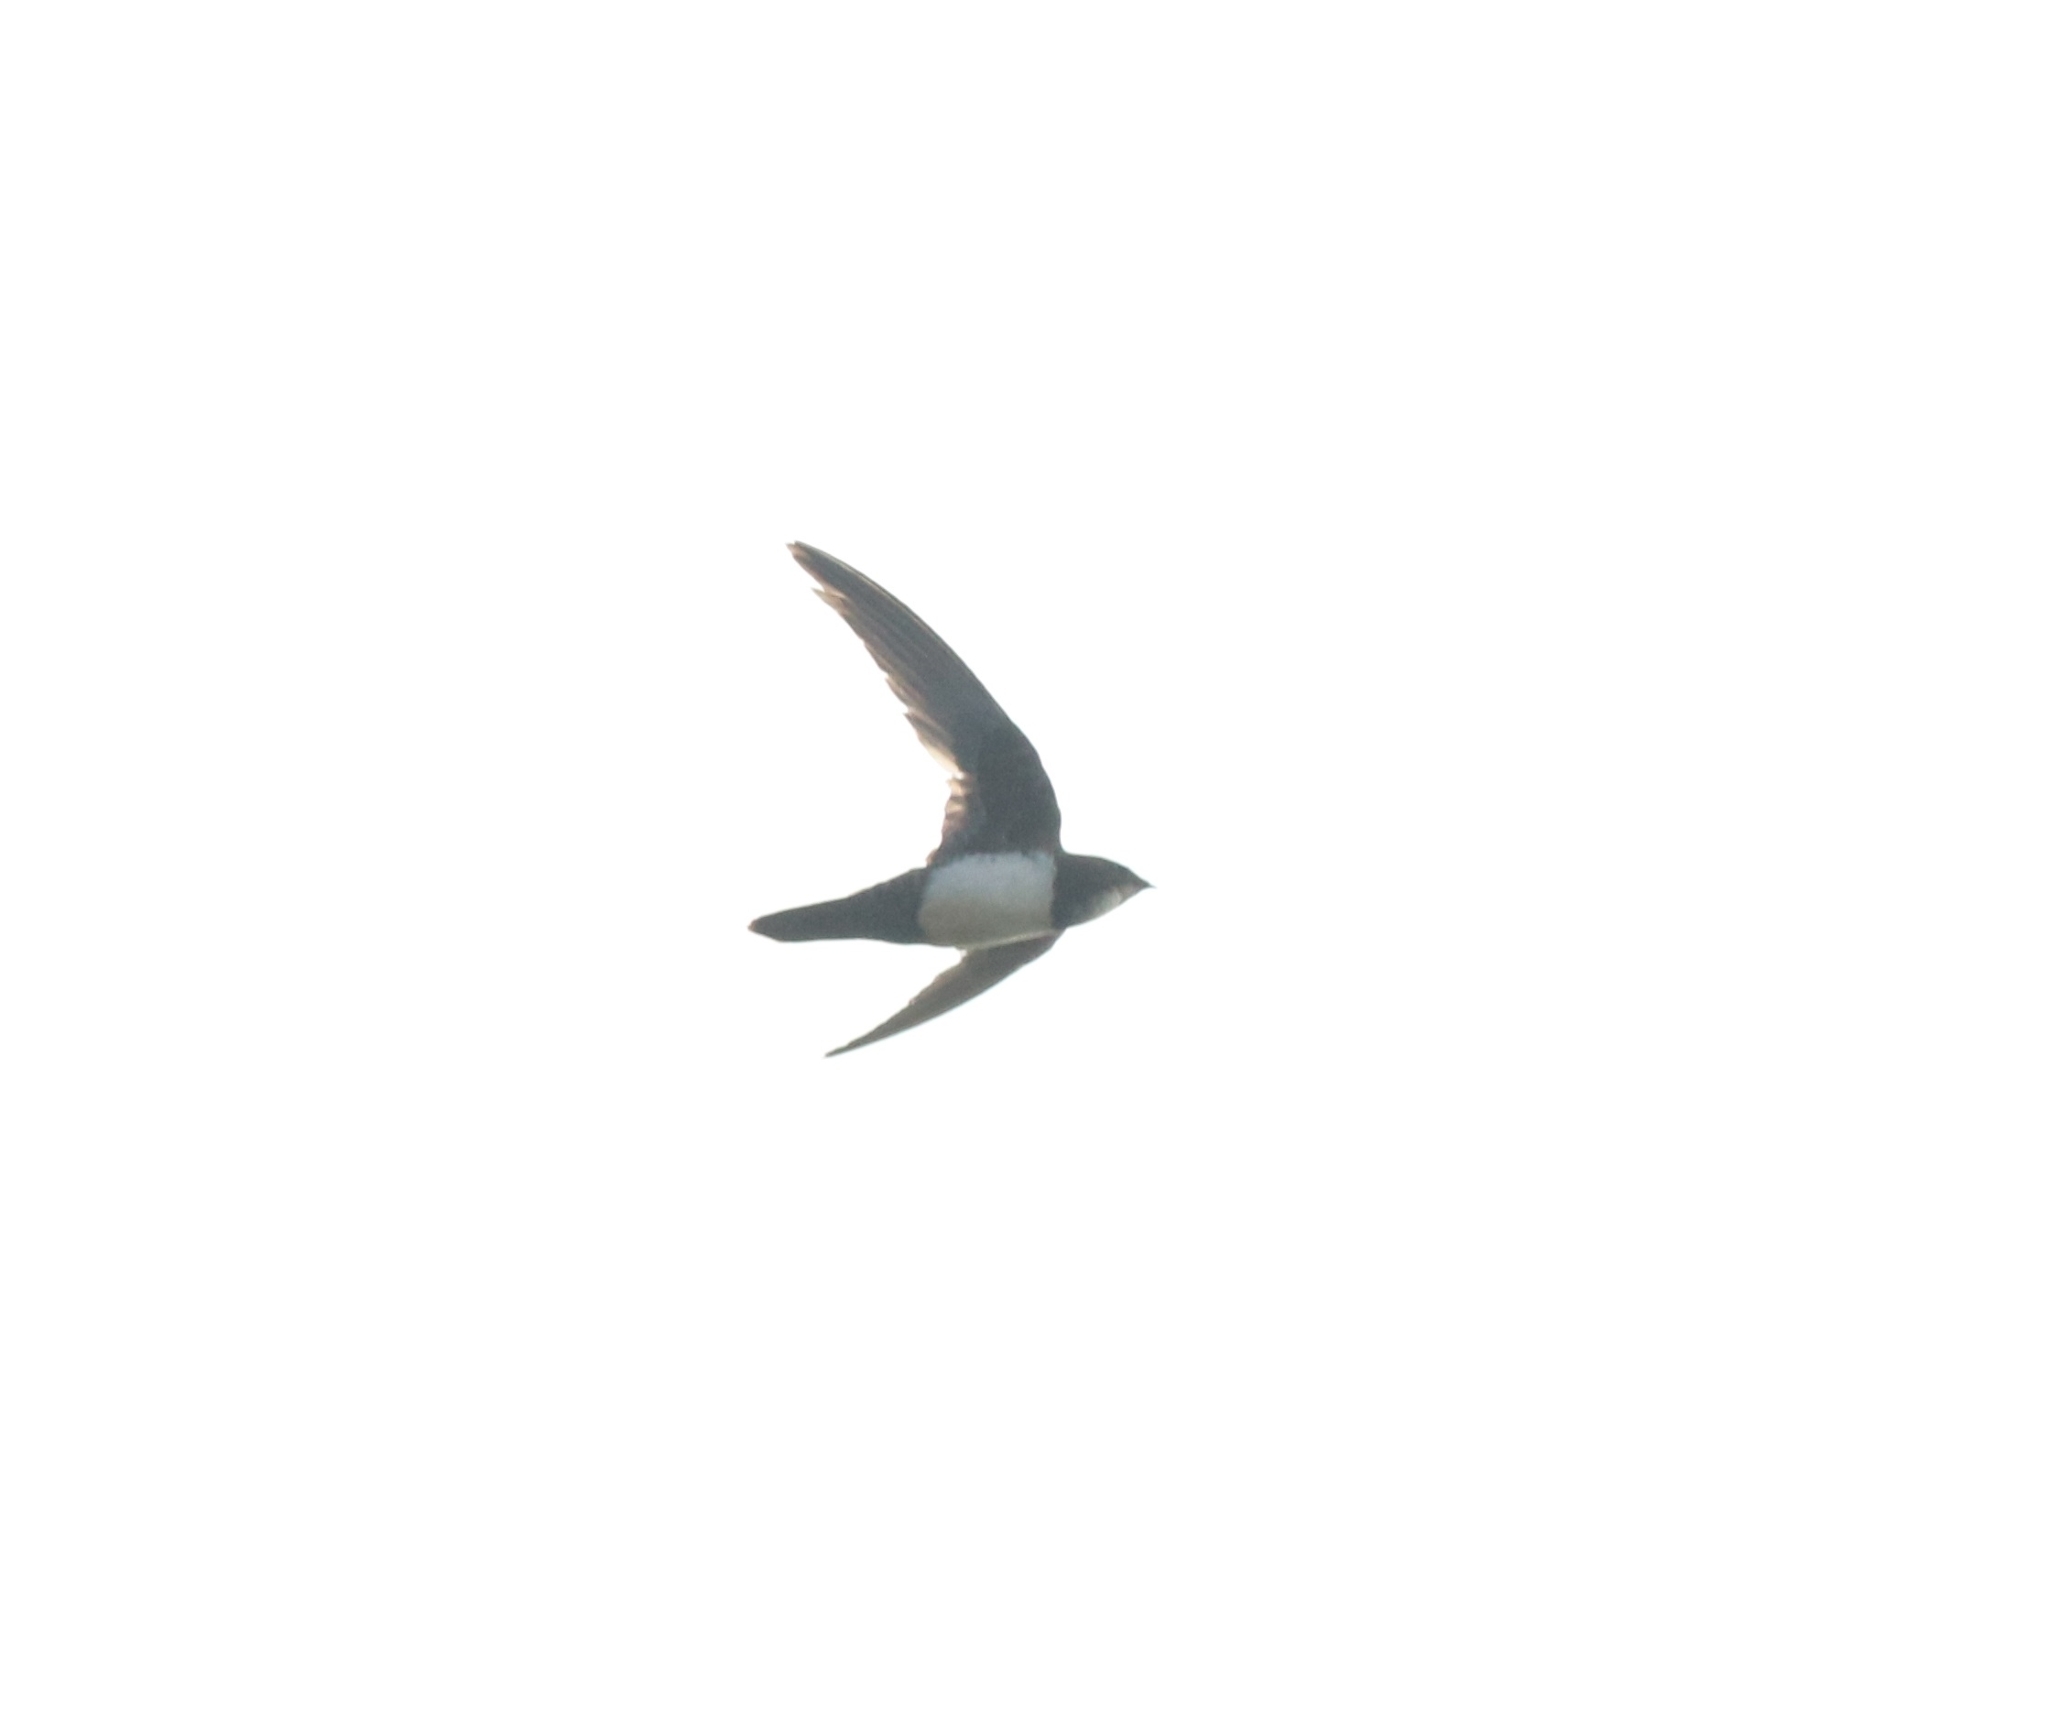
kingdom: Animalia
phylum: Chordata
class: Aves
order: Apodiformes
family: Apodidae
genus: Tachymarptis
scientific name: Tachymarptis melba
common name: Alpine swift
